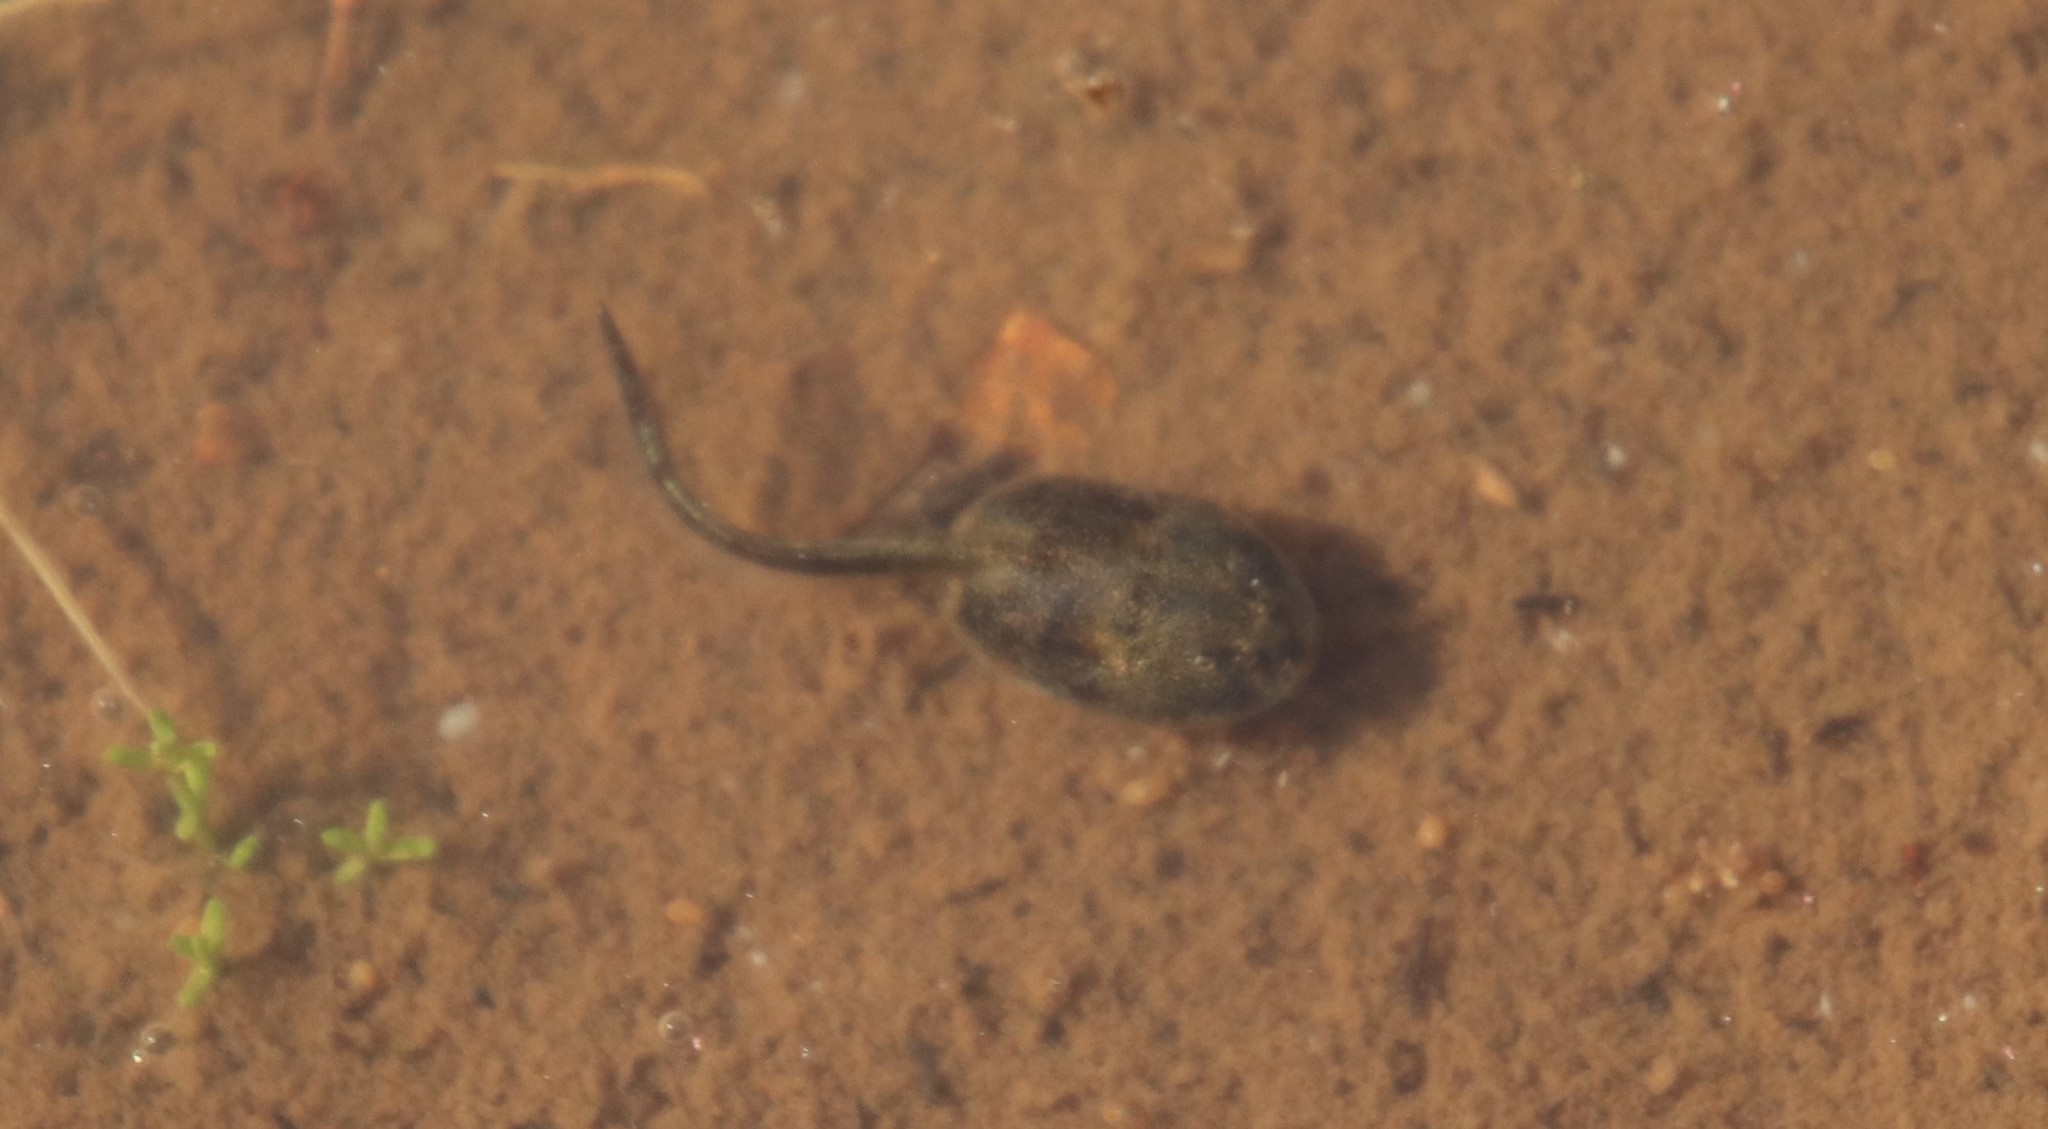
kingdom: Animalia
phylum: Chordata
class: Amphibia
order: Anura
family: Scaphiopodidae
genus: Spea
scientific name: Spea hammondii
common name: Western spadefoot toad
